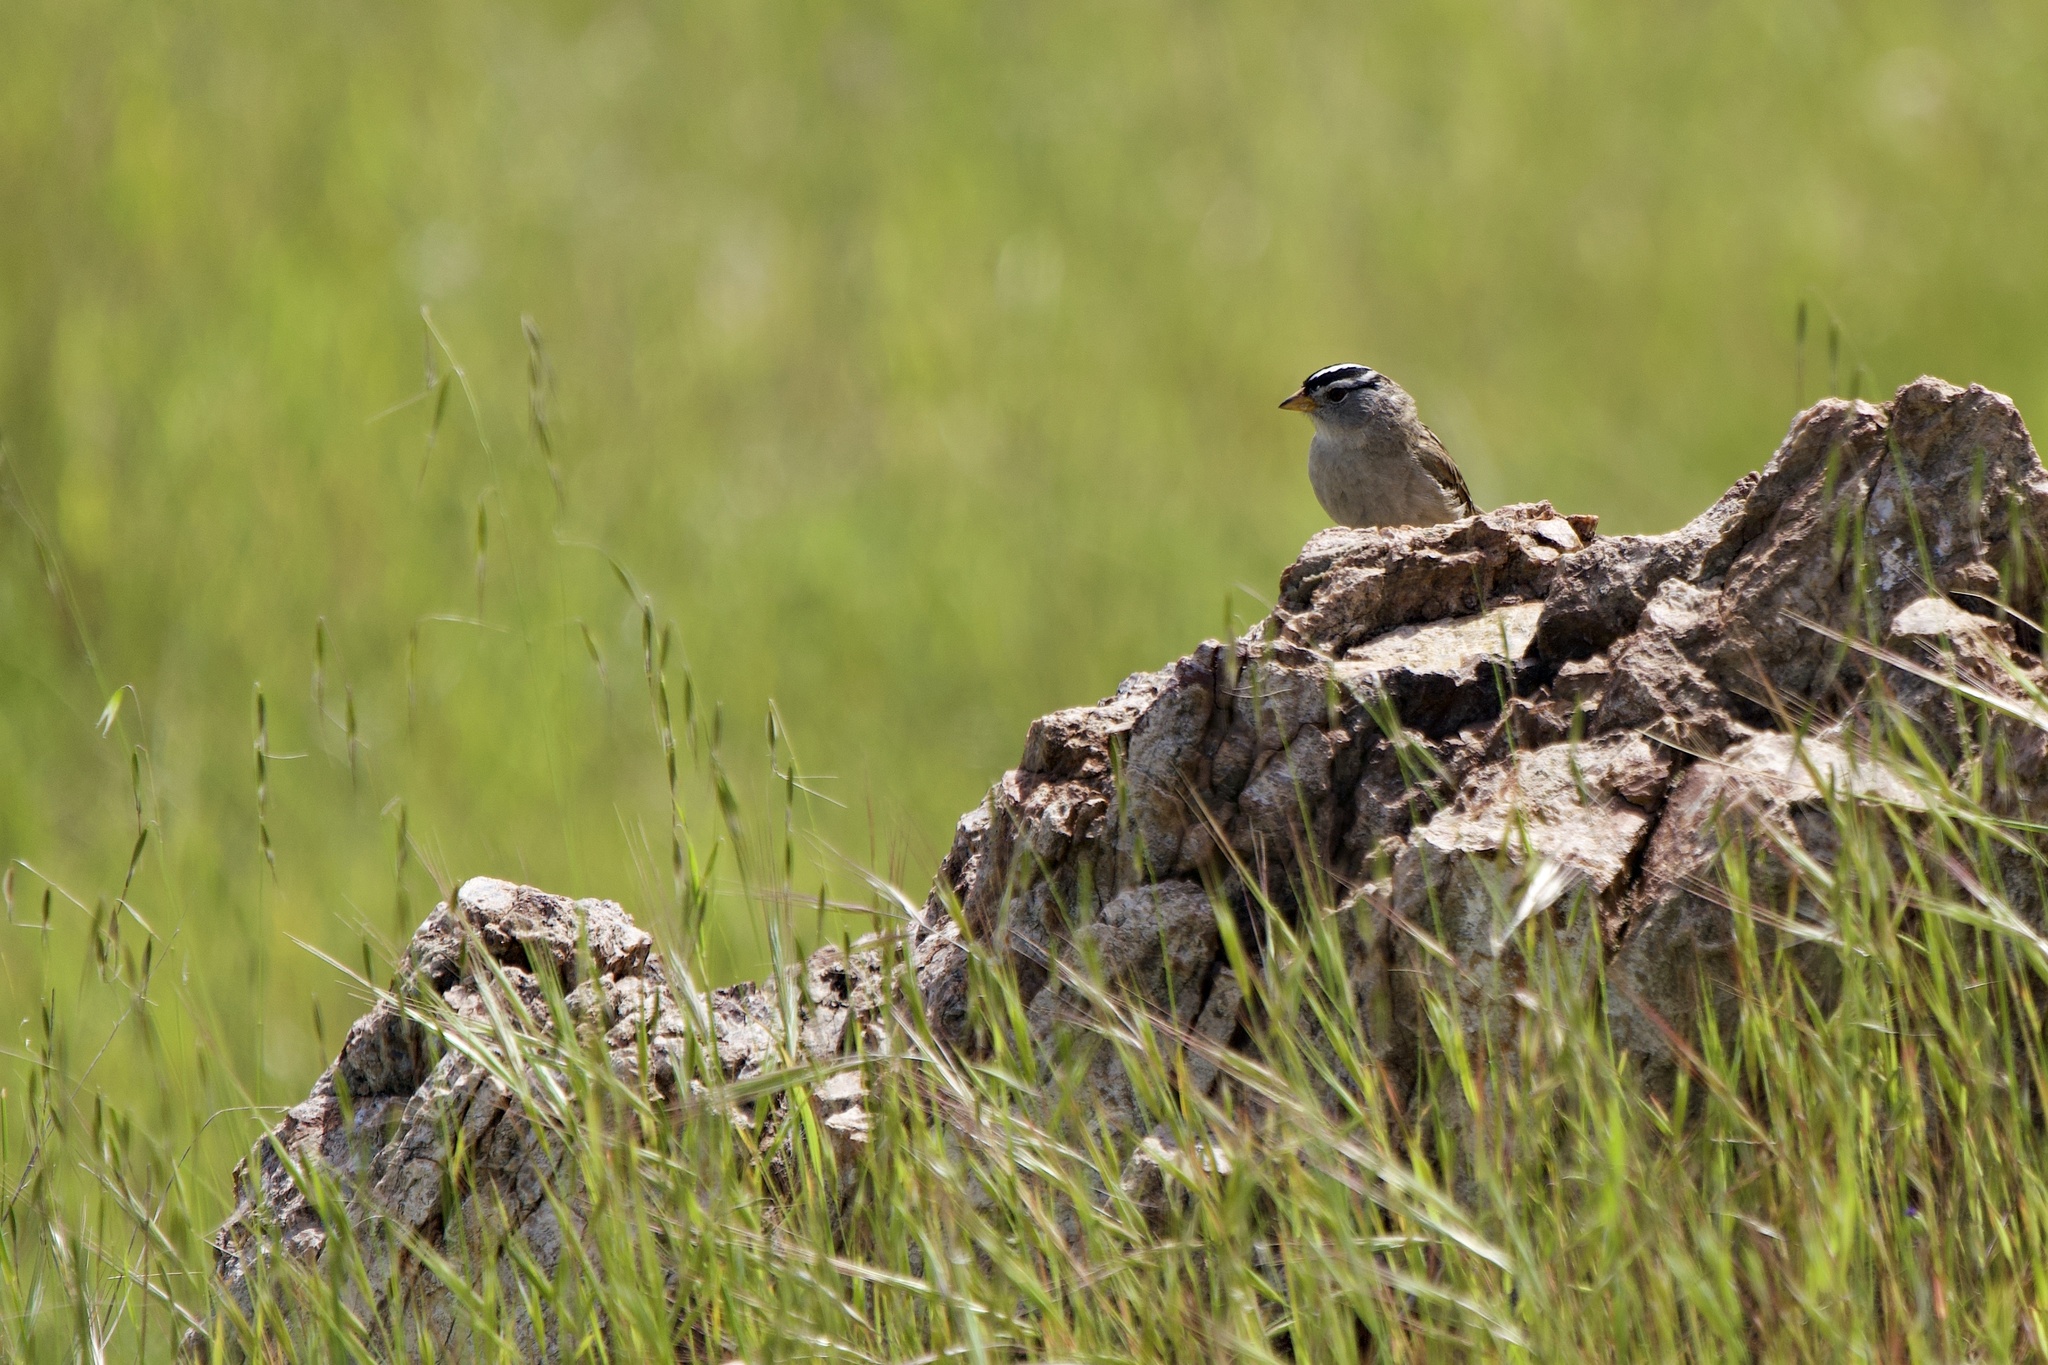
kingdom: Animalia
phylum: Chordata
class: Aves
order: Passeriformes
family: Passerellidae
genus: Zonotrichia
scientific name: Zonotrichia leucophrys
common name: White-crowned sparrow
